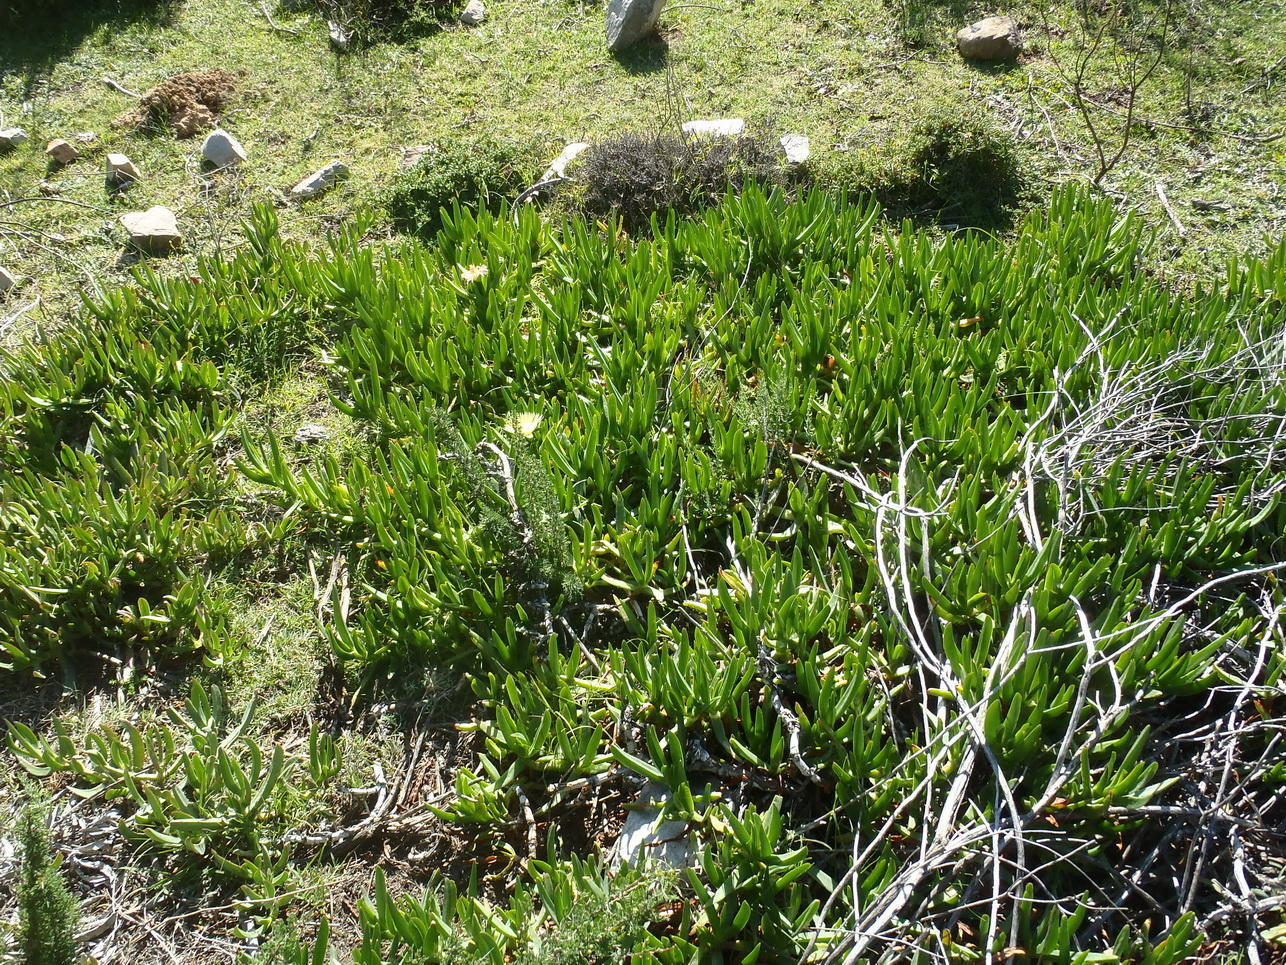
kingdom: Plantae
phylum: Tracheophyta
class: Magnoliopsida
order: Caryophyllales
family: Aizoaceae
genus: Carpobrotus
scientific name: Carpobrotus edulis
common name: Hottentot-fig
